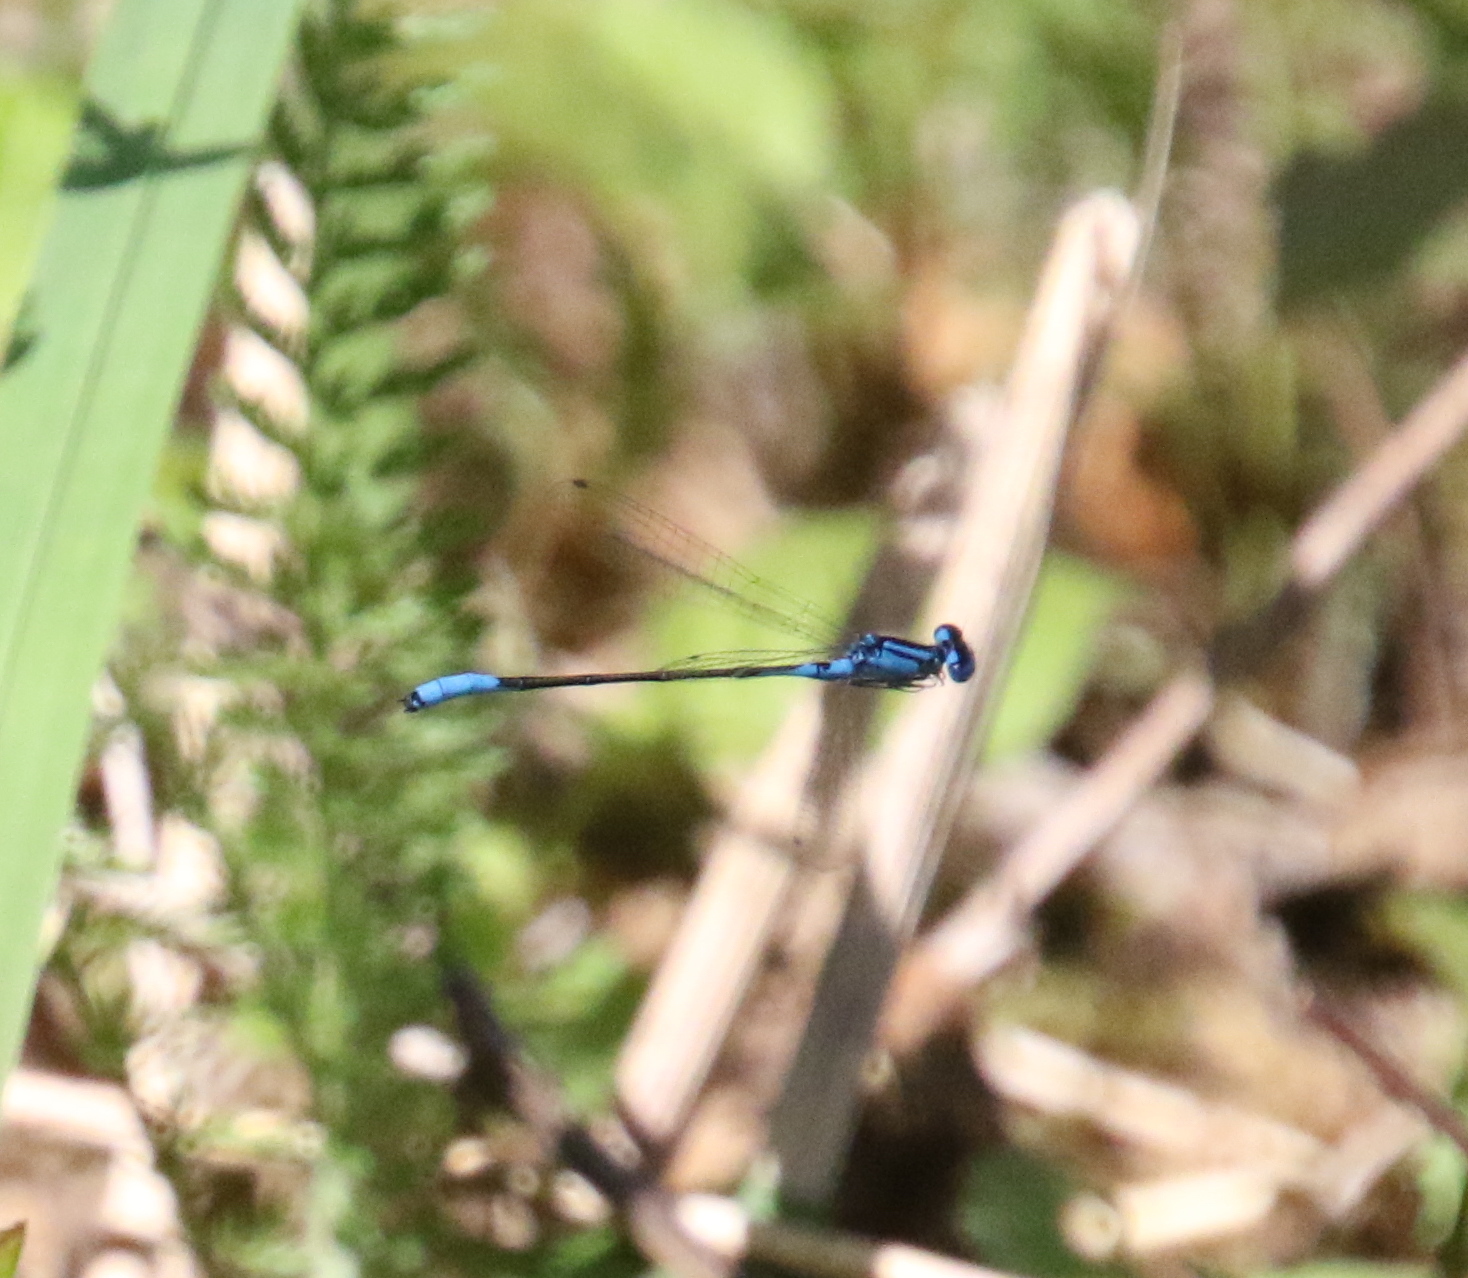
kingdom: Animalia
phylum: Arthropoda
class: Insecta
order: Odonata
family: Coenagrionidae
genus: Enallagma
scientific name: Enallagma aspersum
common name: Azure bluet
